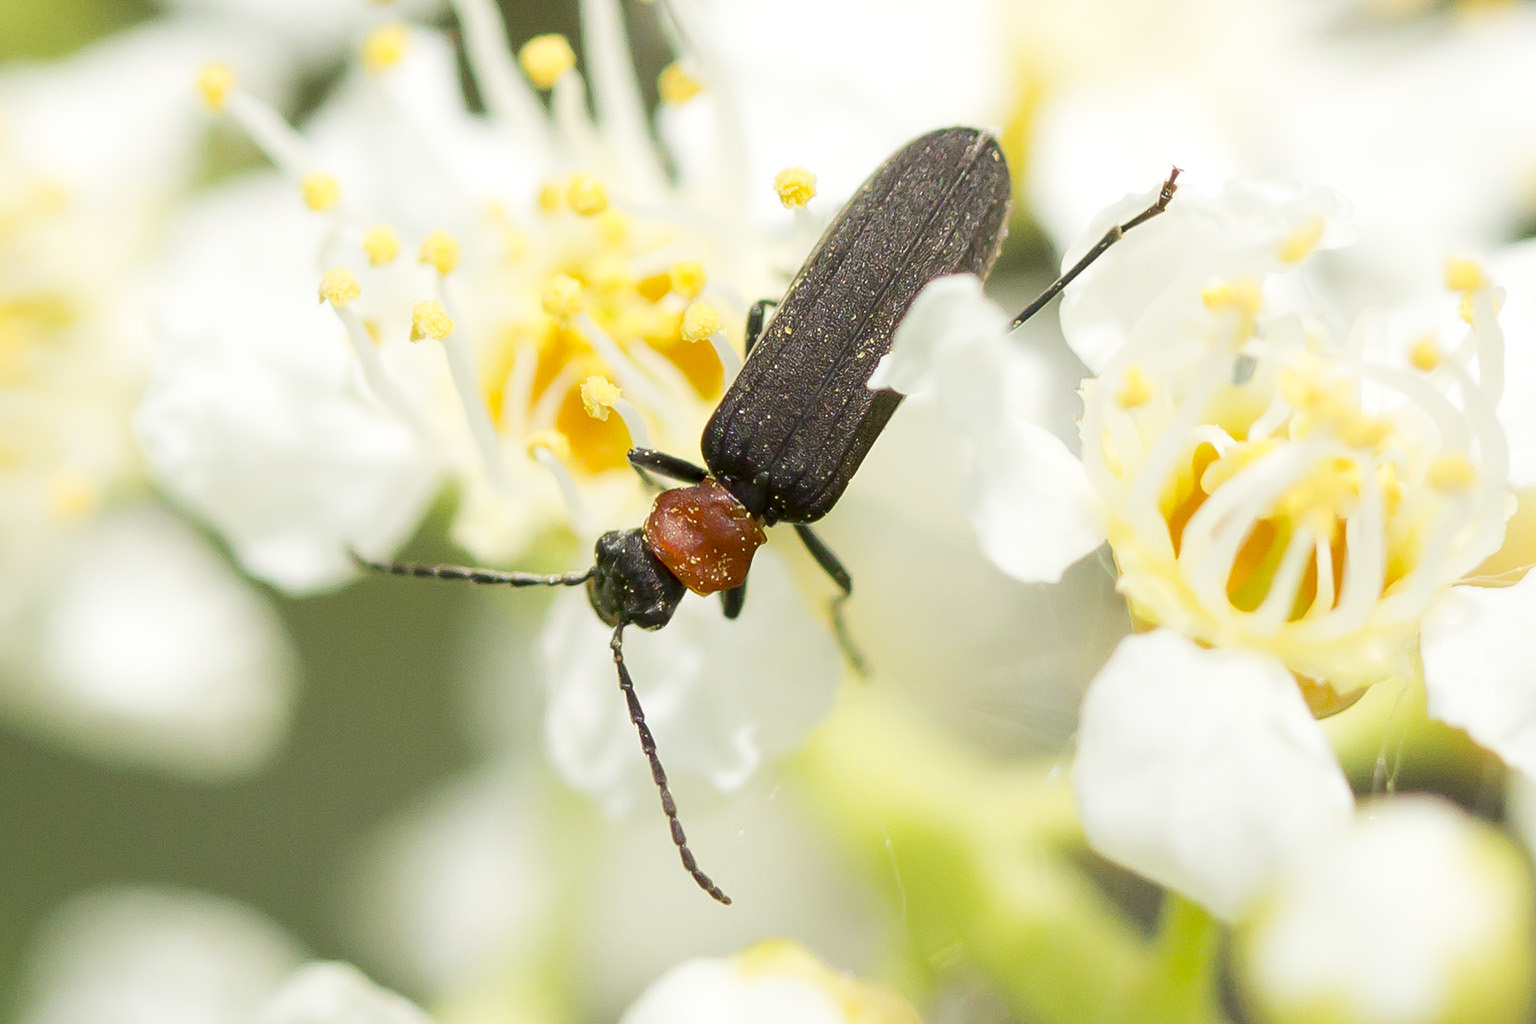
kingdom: Animalia
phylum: Arthropoda
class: Insecta
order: Coleoptera
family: Oedemeridae
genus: Ischnomera
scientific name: Ischnomera
